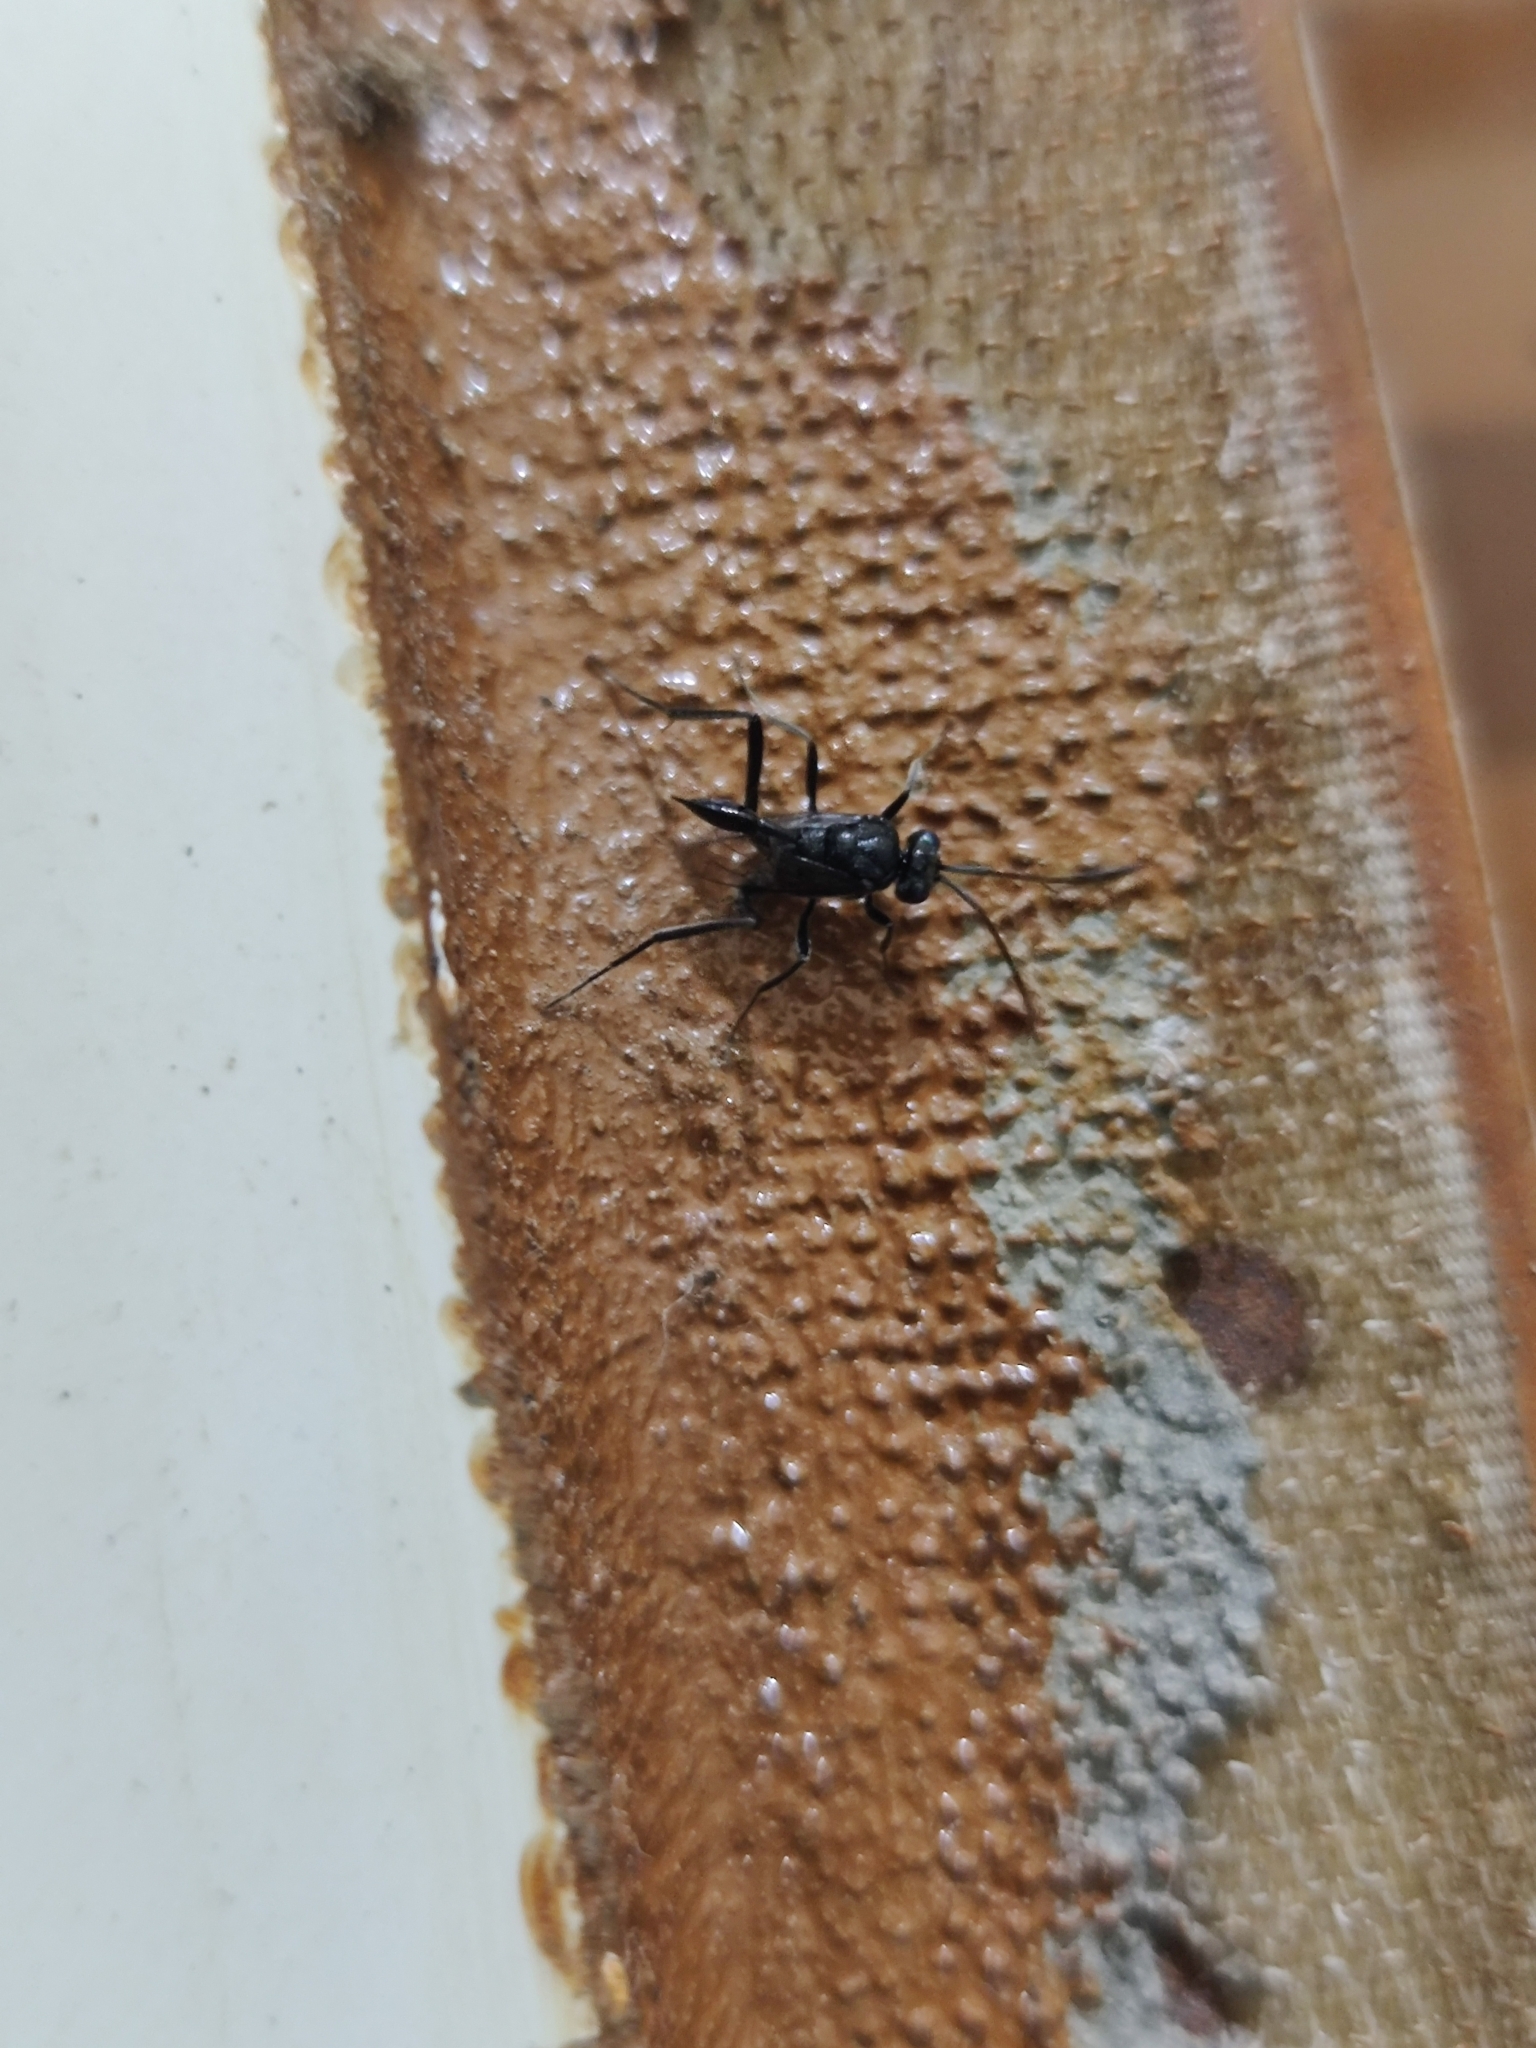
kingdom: Animalia
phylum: Arthropoda
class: Insecta
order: Hymenoptera
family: Evaniidae
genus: Evania
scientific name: Evania appendigaster
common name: Ensign wasp
